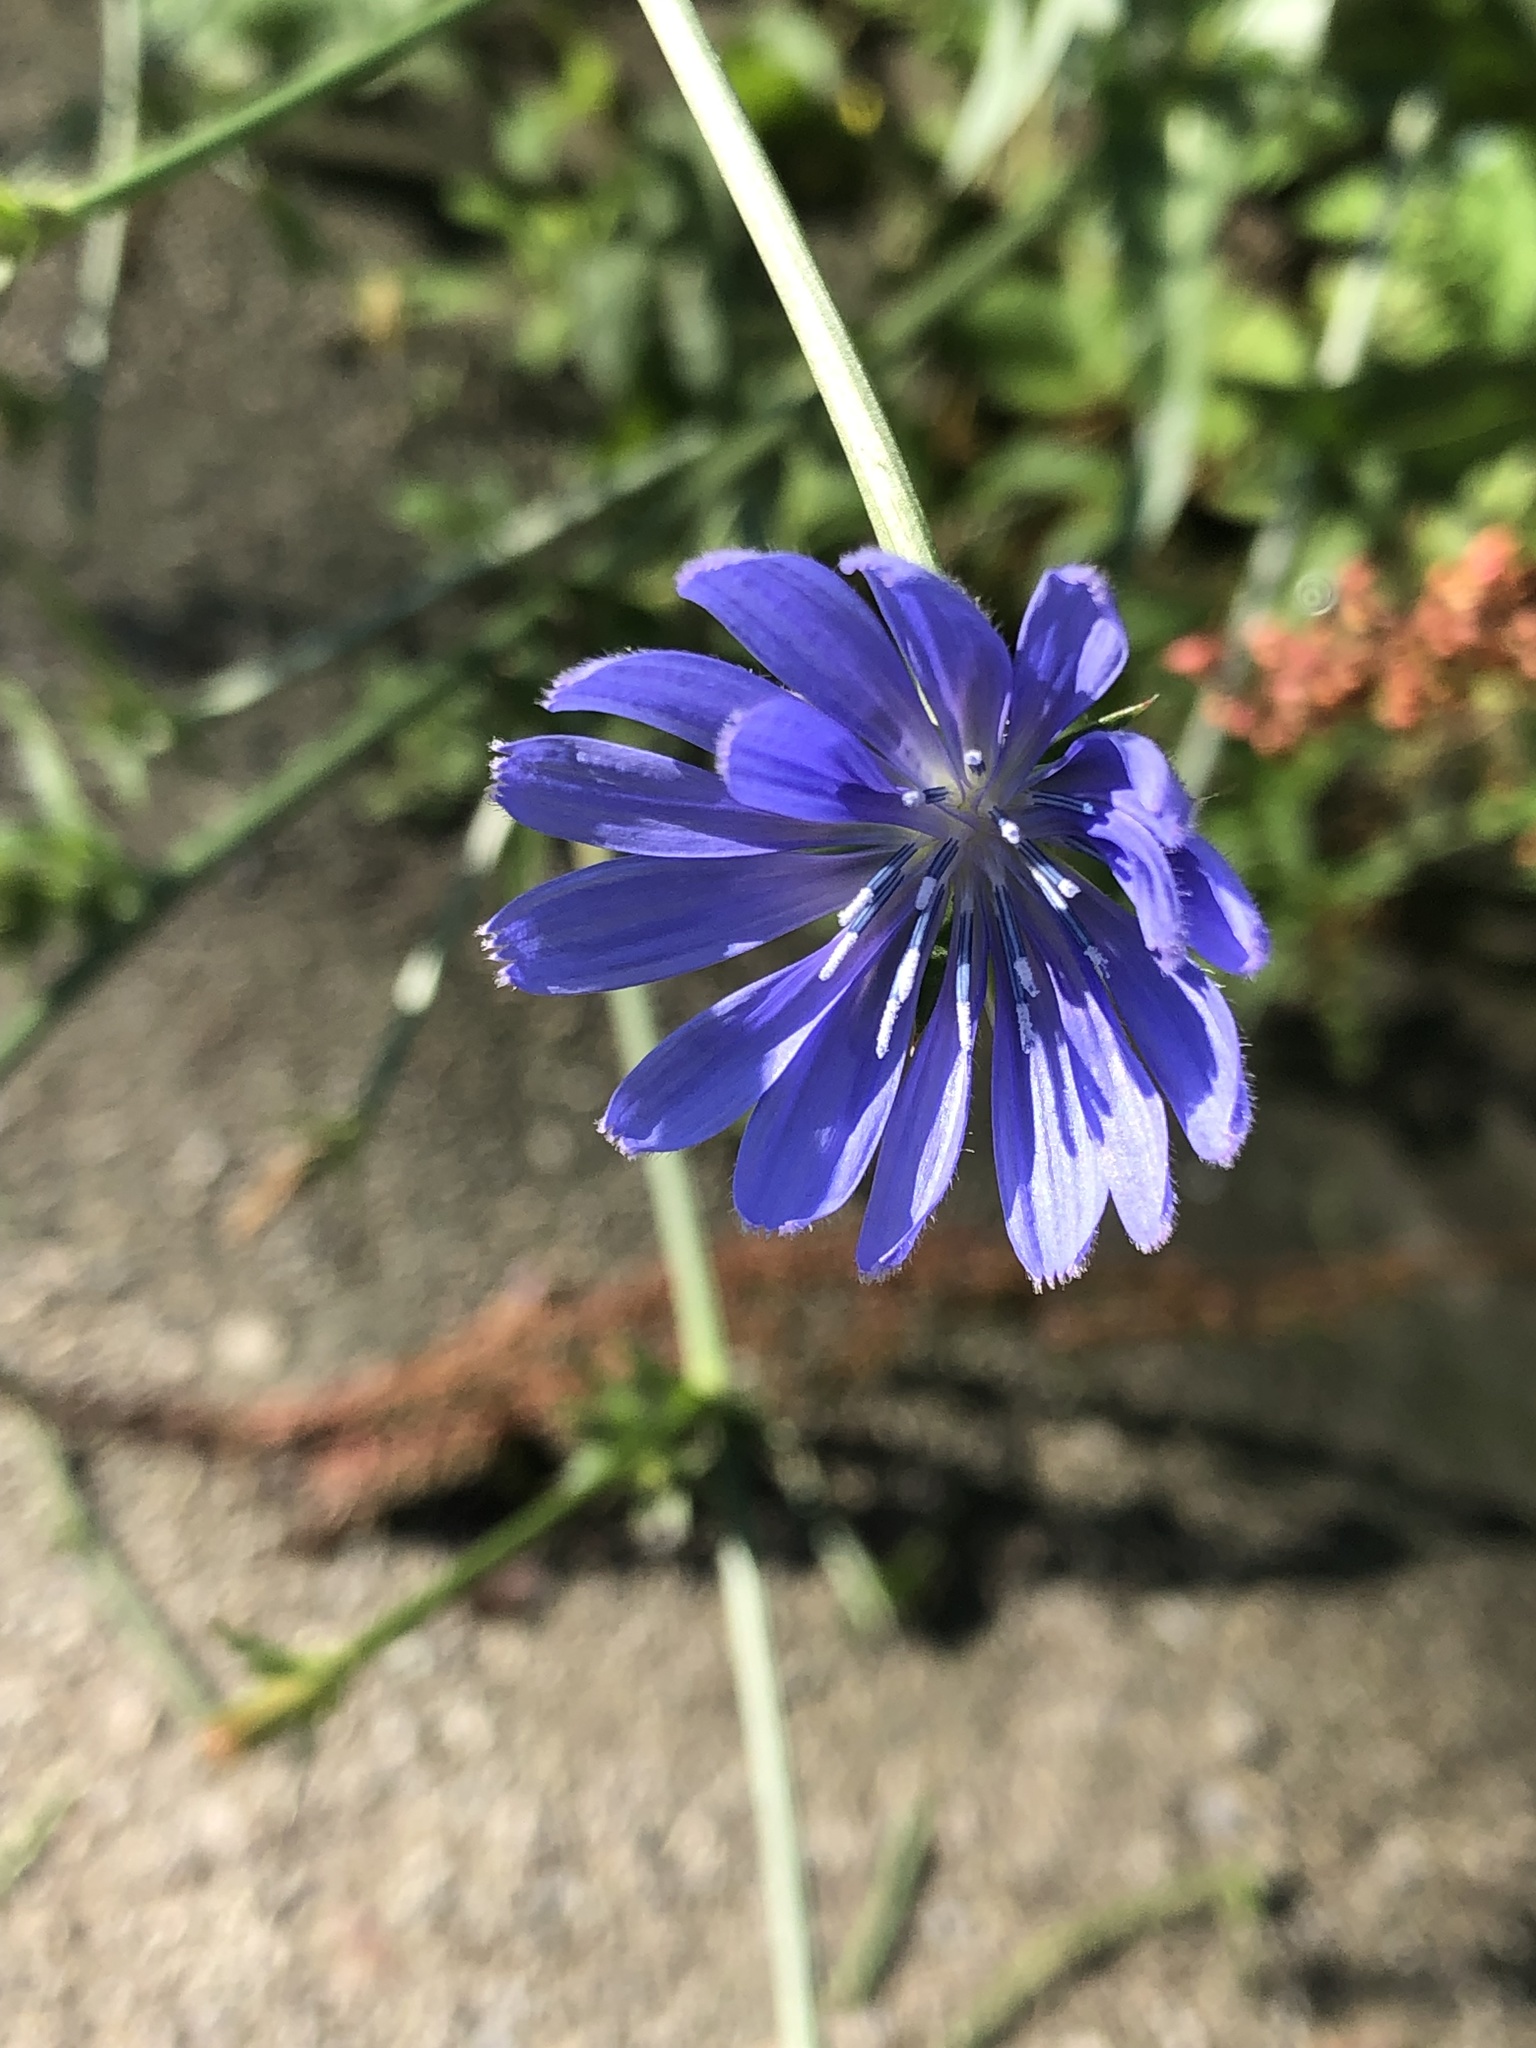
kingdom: Plantae
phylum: Tracheophyta
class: Magnoliopsida
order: Asterales
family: Asteraceae
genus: Cichorium
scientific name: Cichorium intybus
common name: Chicory
